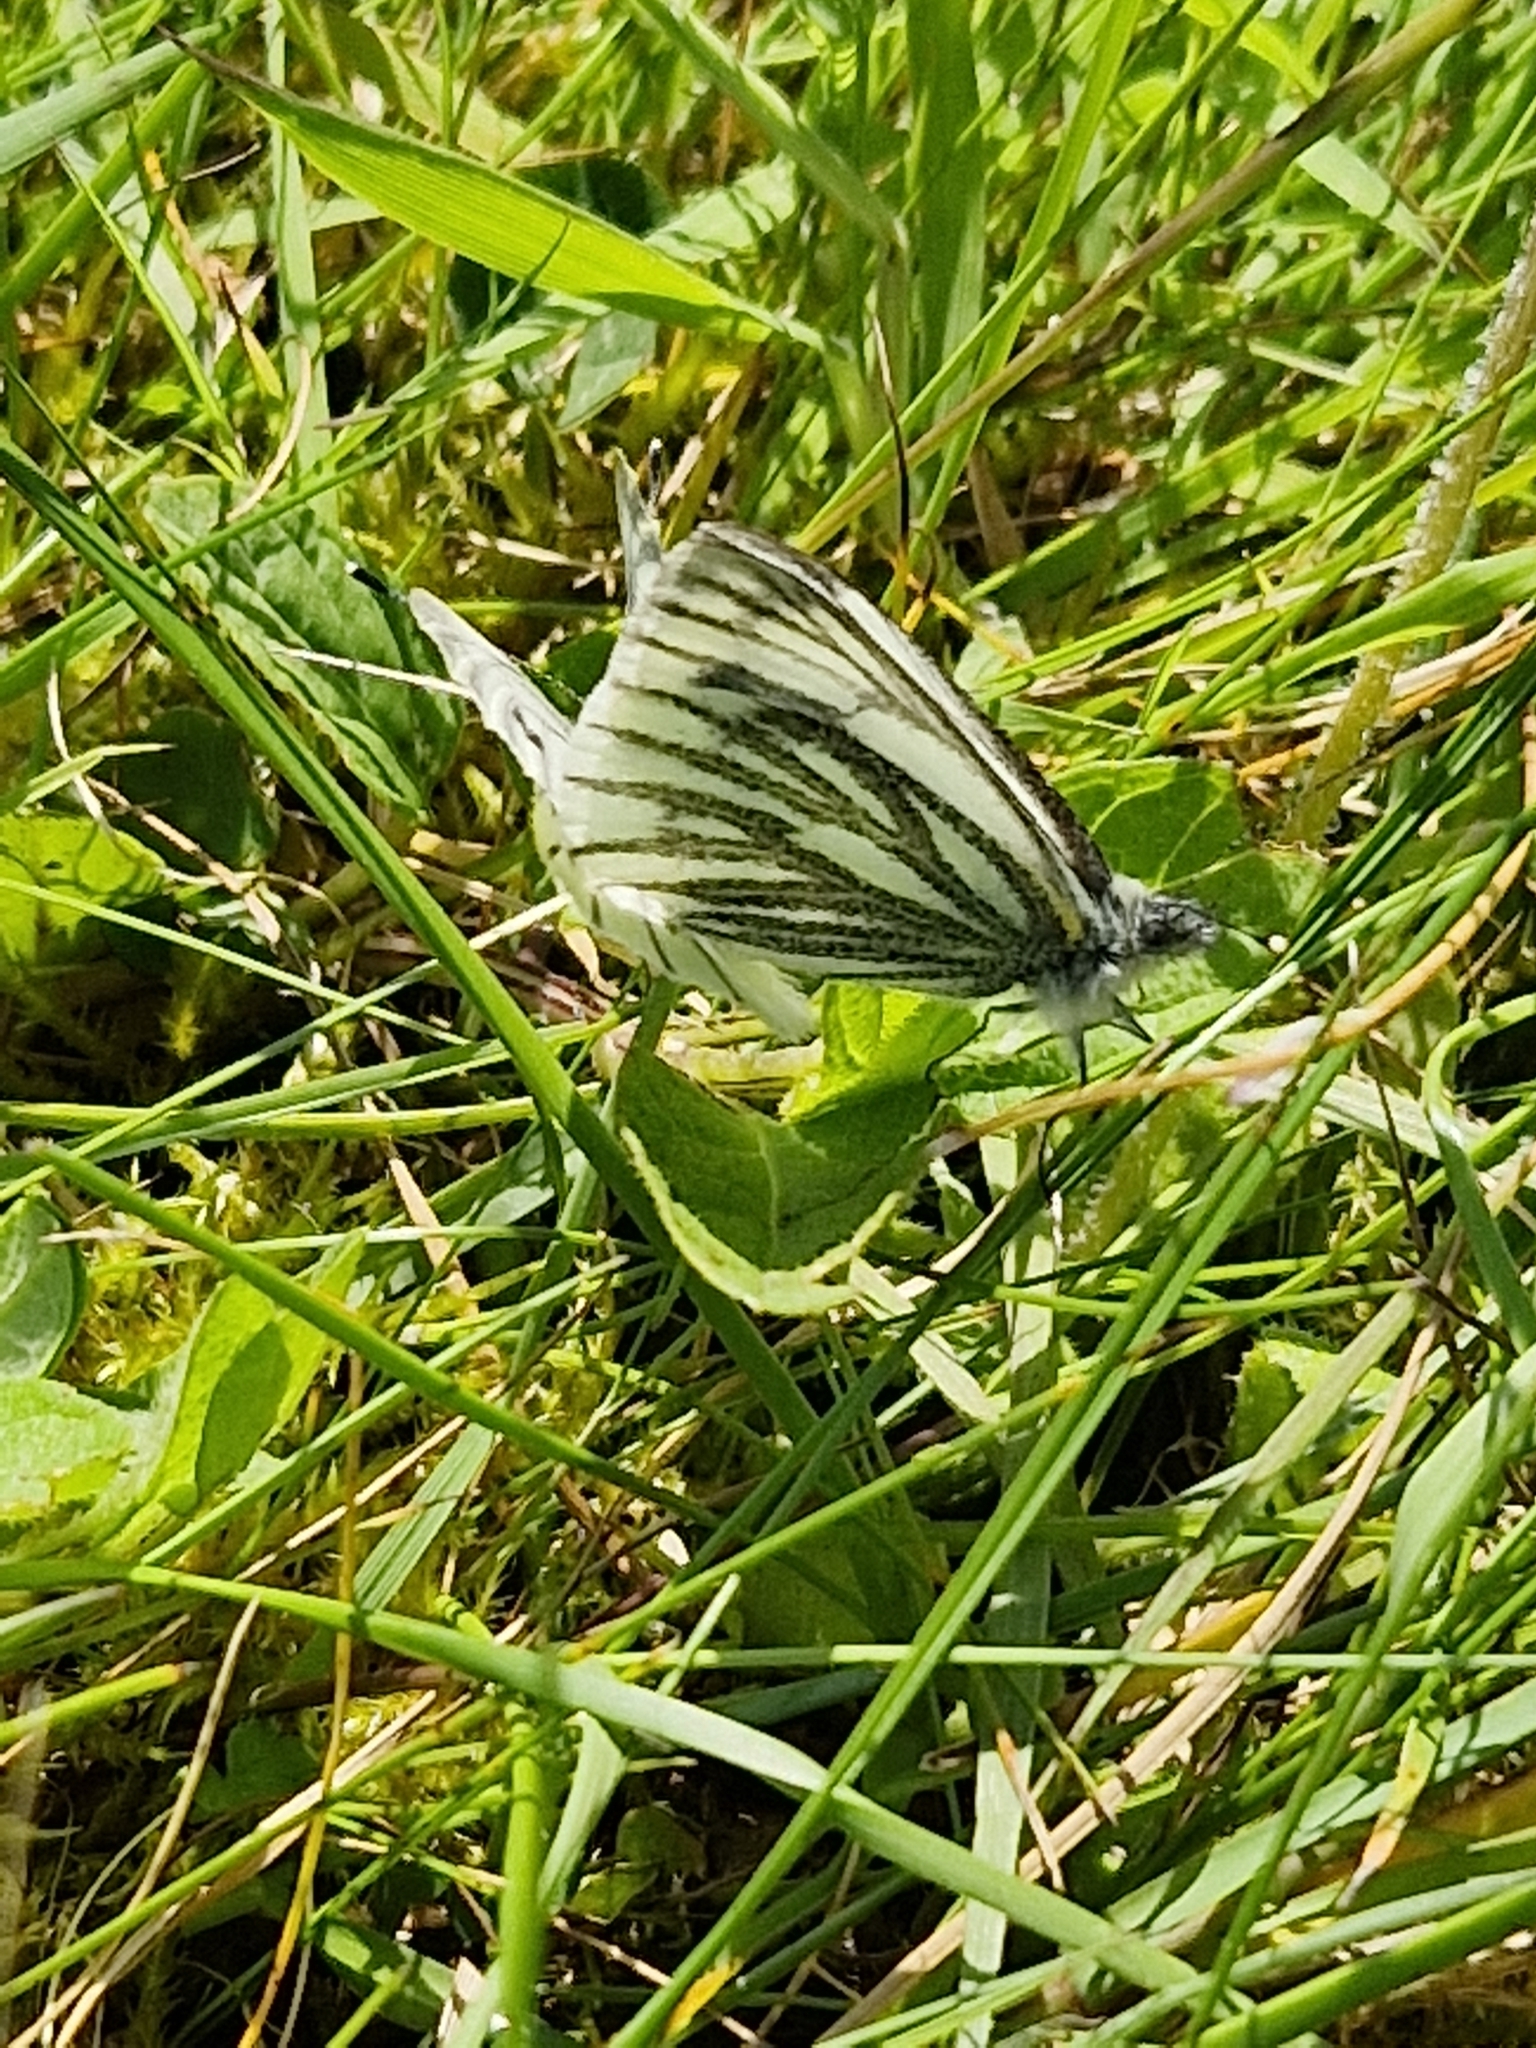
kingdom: Animalia
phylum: Arthropoda
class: Insecta
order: Lepidoptera
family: Pieridae
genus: Pieris
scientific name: Pieris napi
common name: Green-veined white
